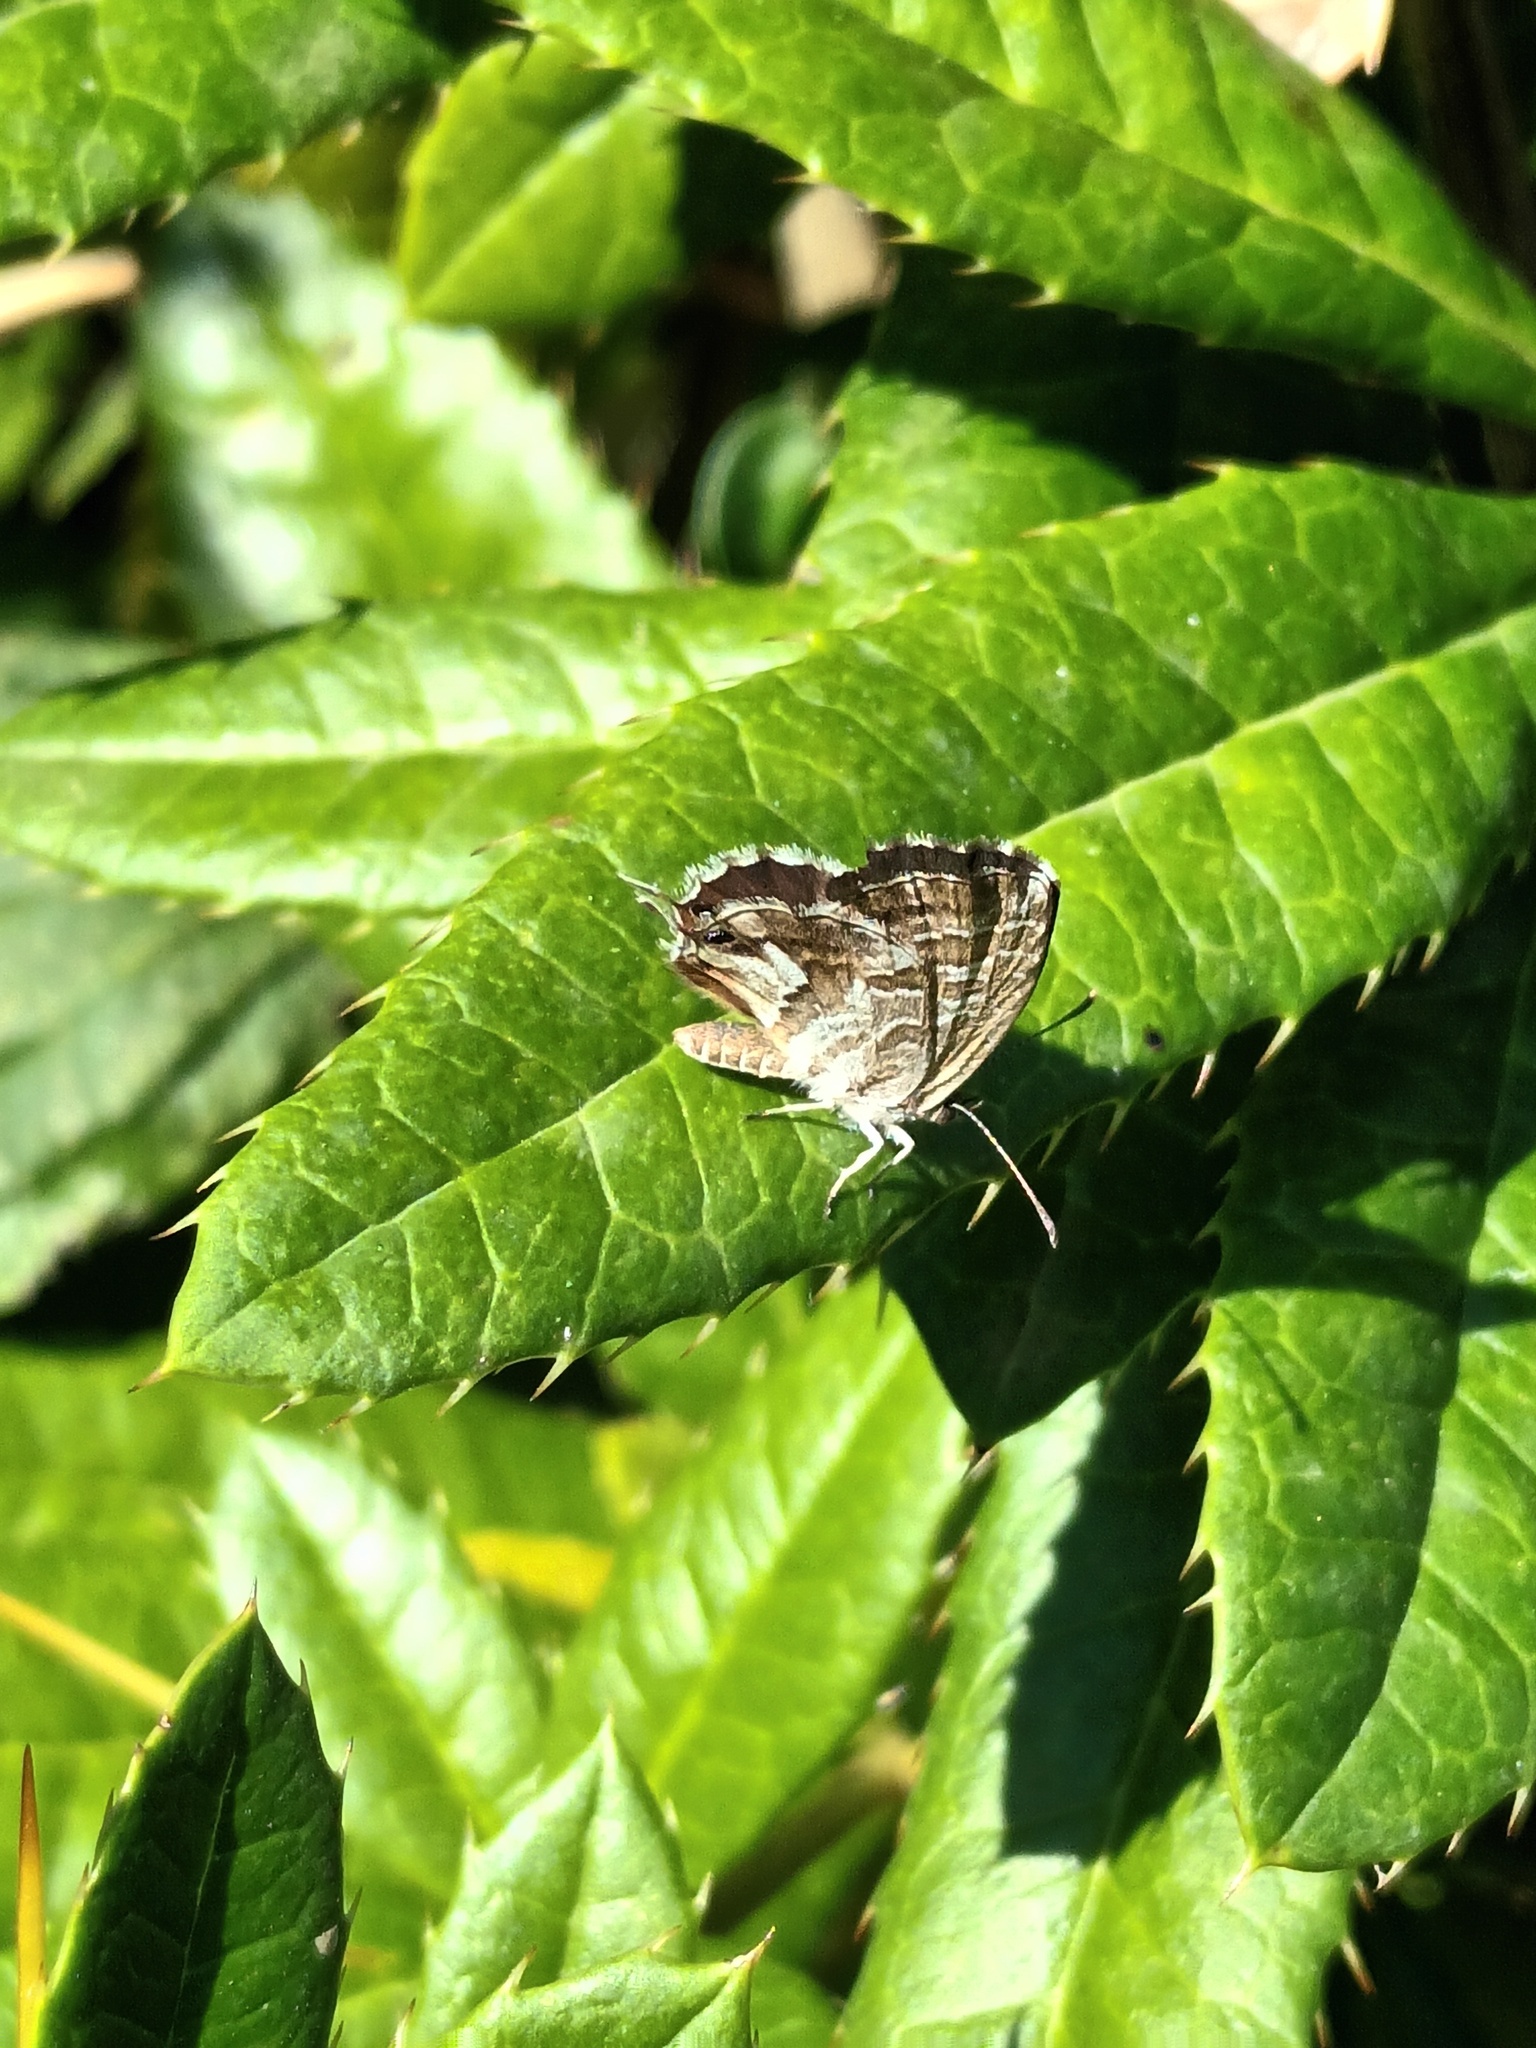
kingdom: Animalia
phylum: Arthropoda
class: Insecta
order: Lepidoptera
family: Lycaenidae
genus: Cacyreus
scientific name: Cacyreus marshalli
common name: Geranium bronze
